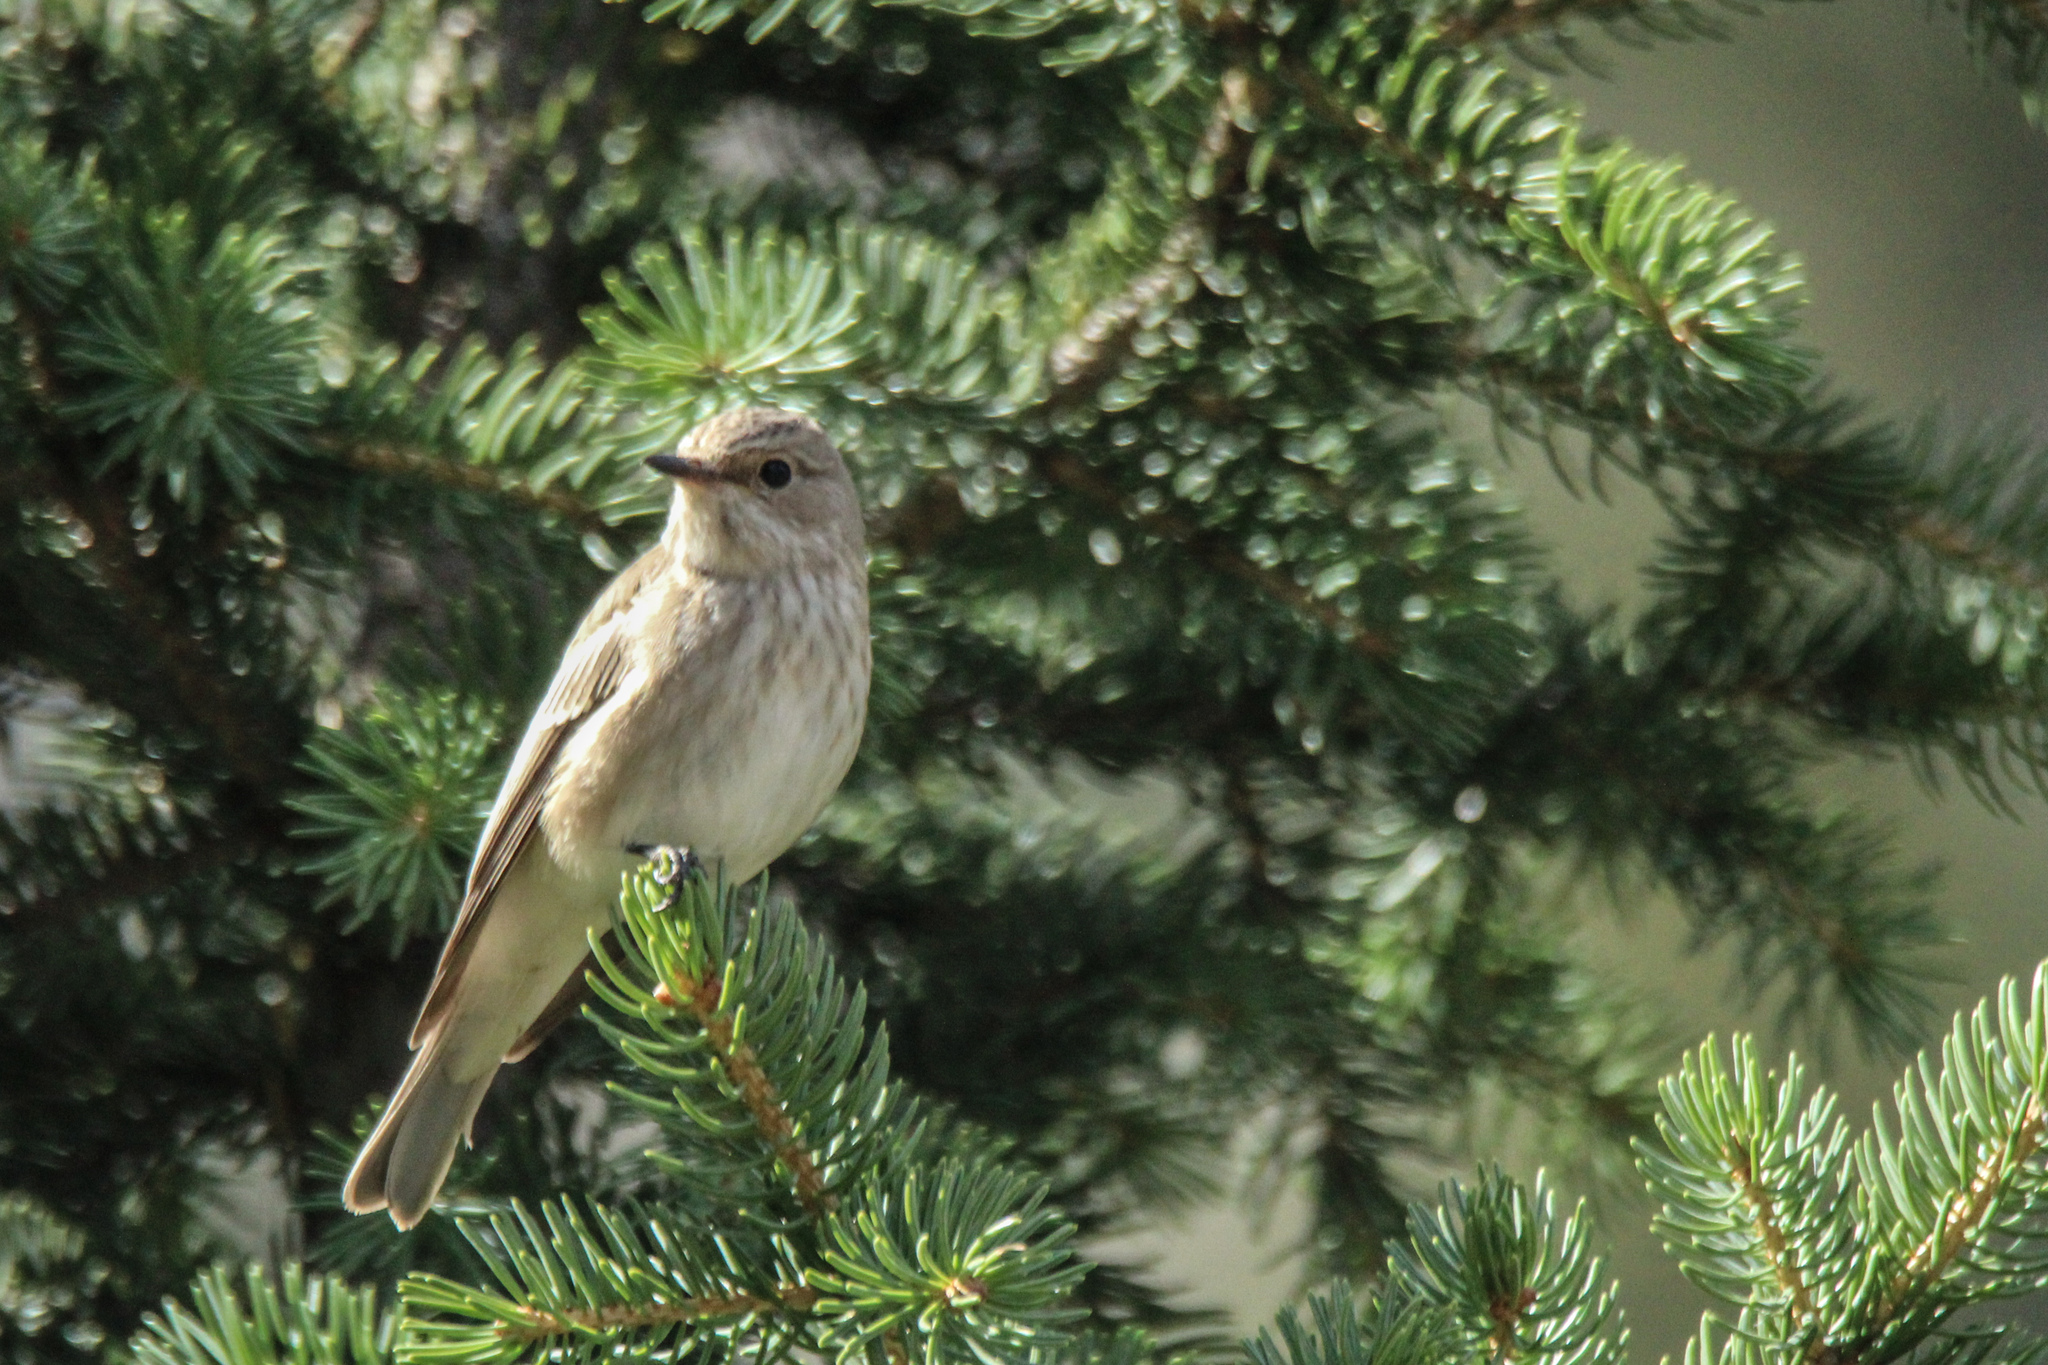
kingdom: Animalia
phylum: Chordata
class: Aves
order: Passeriformes
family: Muscicapidae
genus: Muscicapa
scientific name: Muscicapa striata
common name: Spotted flycatcher
